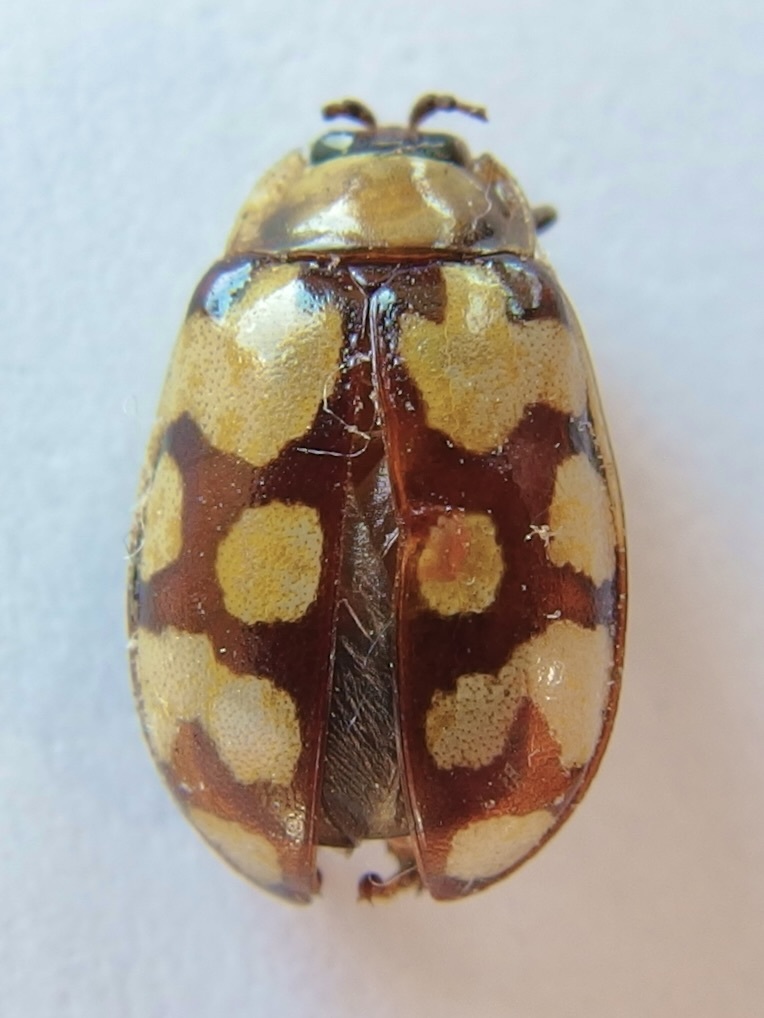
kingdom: Animalia
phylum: Arthropoda
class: Insecta
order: Coleoptera
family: Chrysomelidae
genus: Alagoasa
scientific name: Alagoasa
